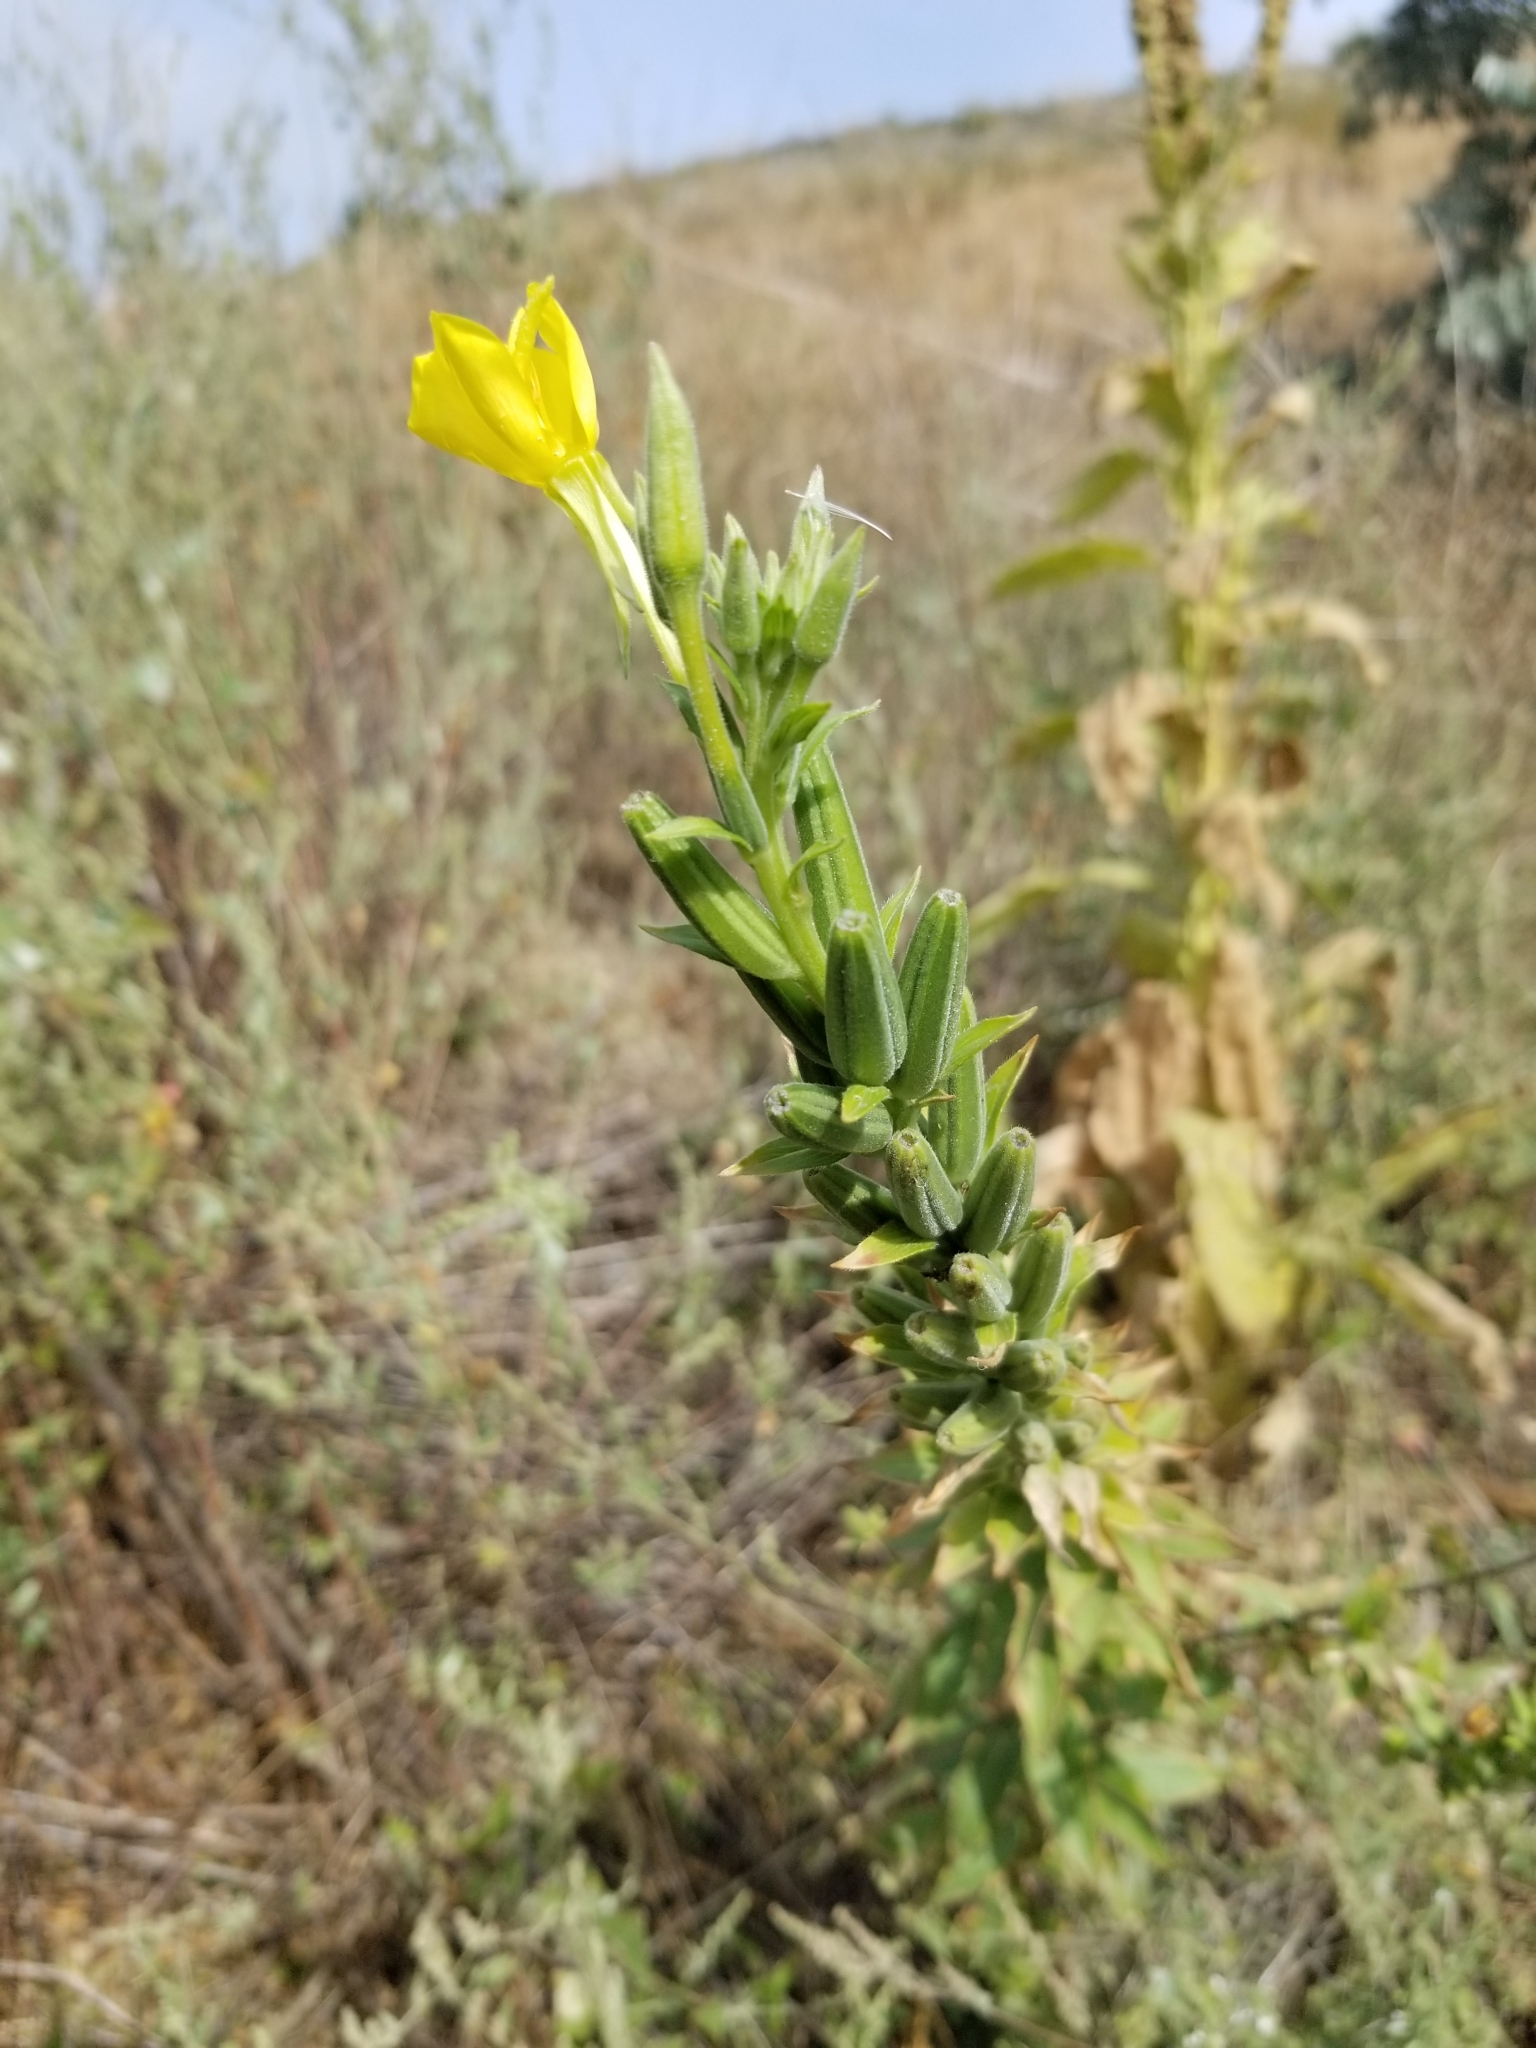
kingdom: Plantae
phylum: Tracheophyta
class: Magnoliopsida
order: Myrtales
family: Onagraceae
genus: Oenothera
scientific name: Oenothera biennis
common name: Common evening-primrose
